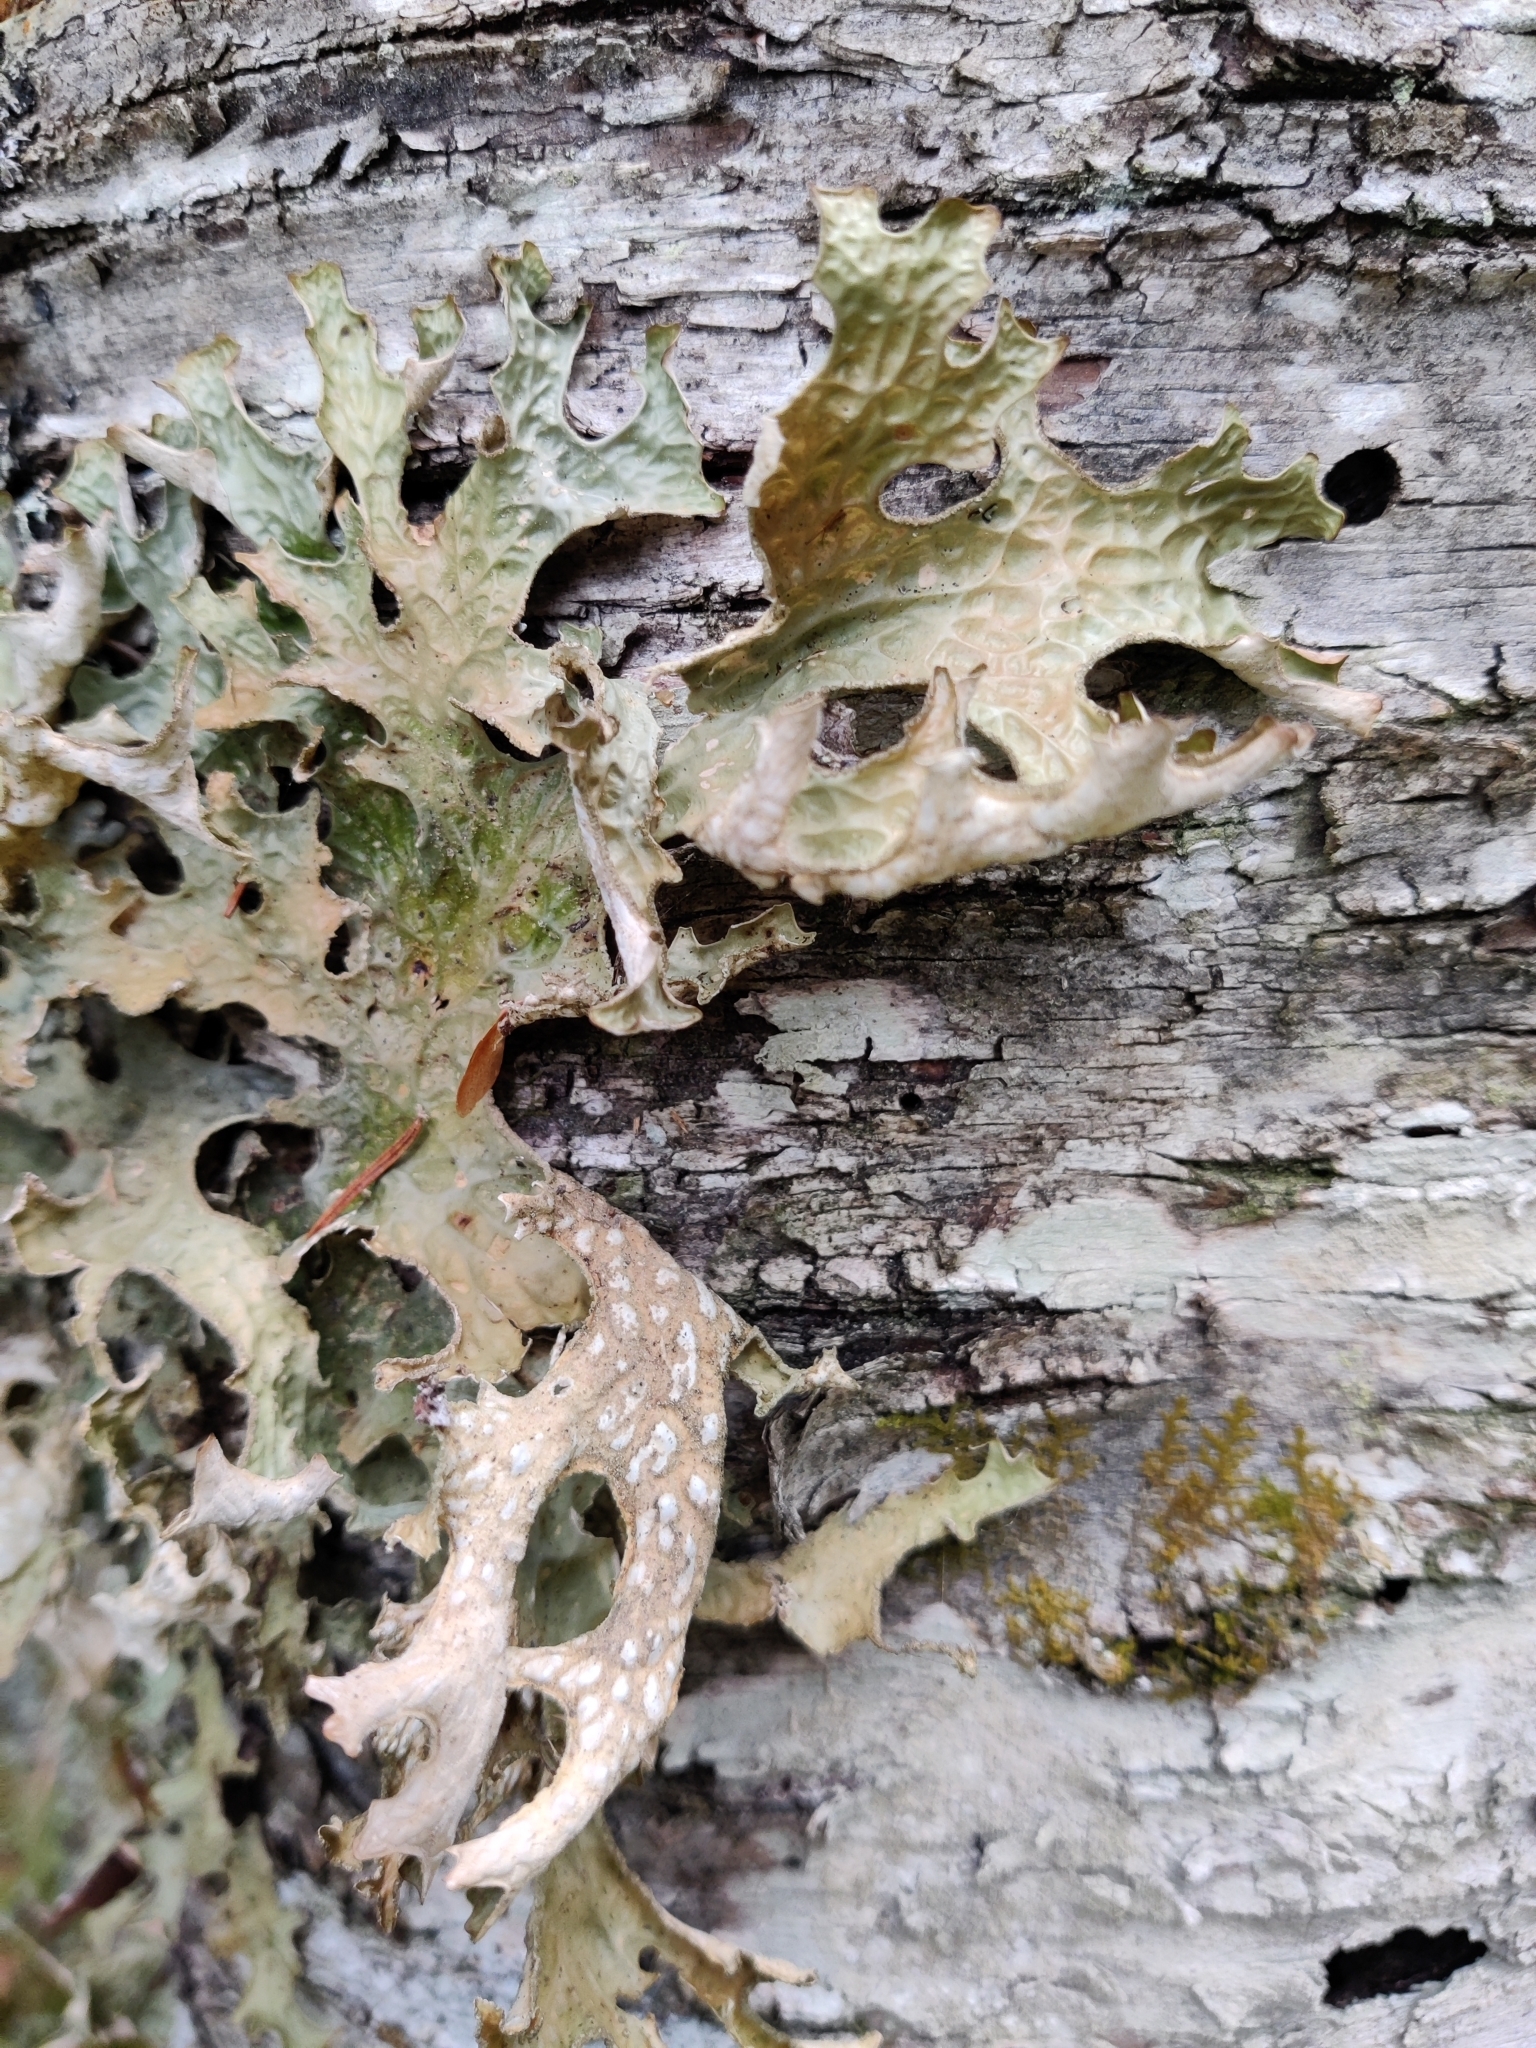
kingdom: Fungi
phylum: Ascomycota
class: Lecanoromycetes
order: Peltigerales
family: Lobariaceae
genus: Lobaria
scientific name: Lobaria pulmonaria
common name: Lungwort
